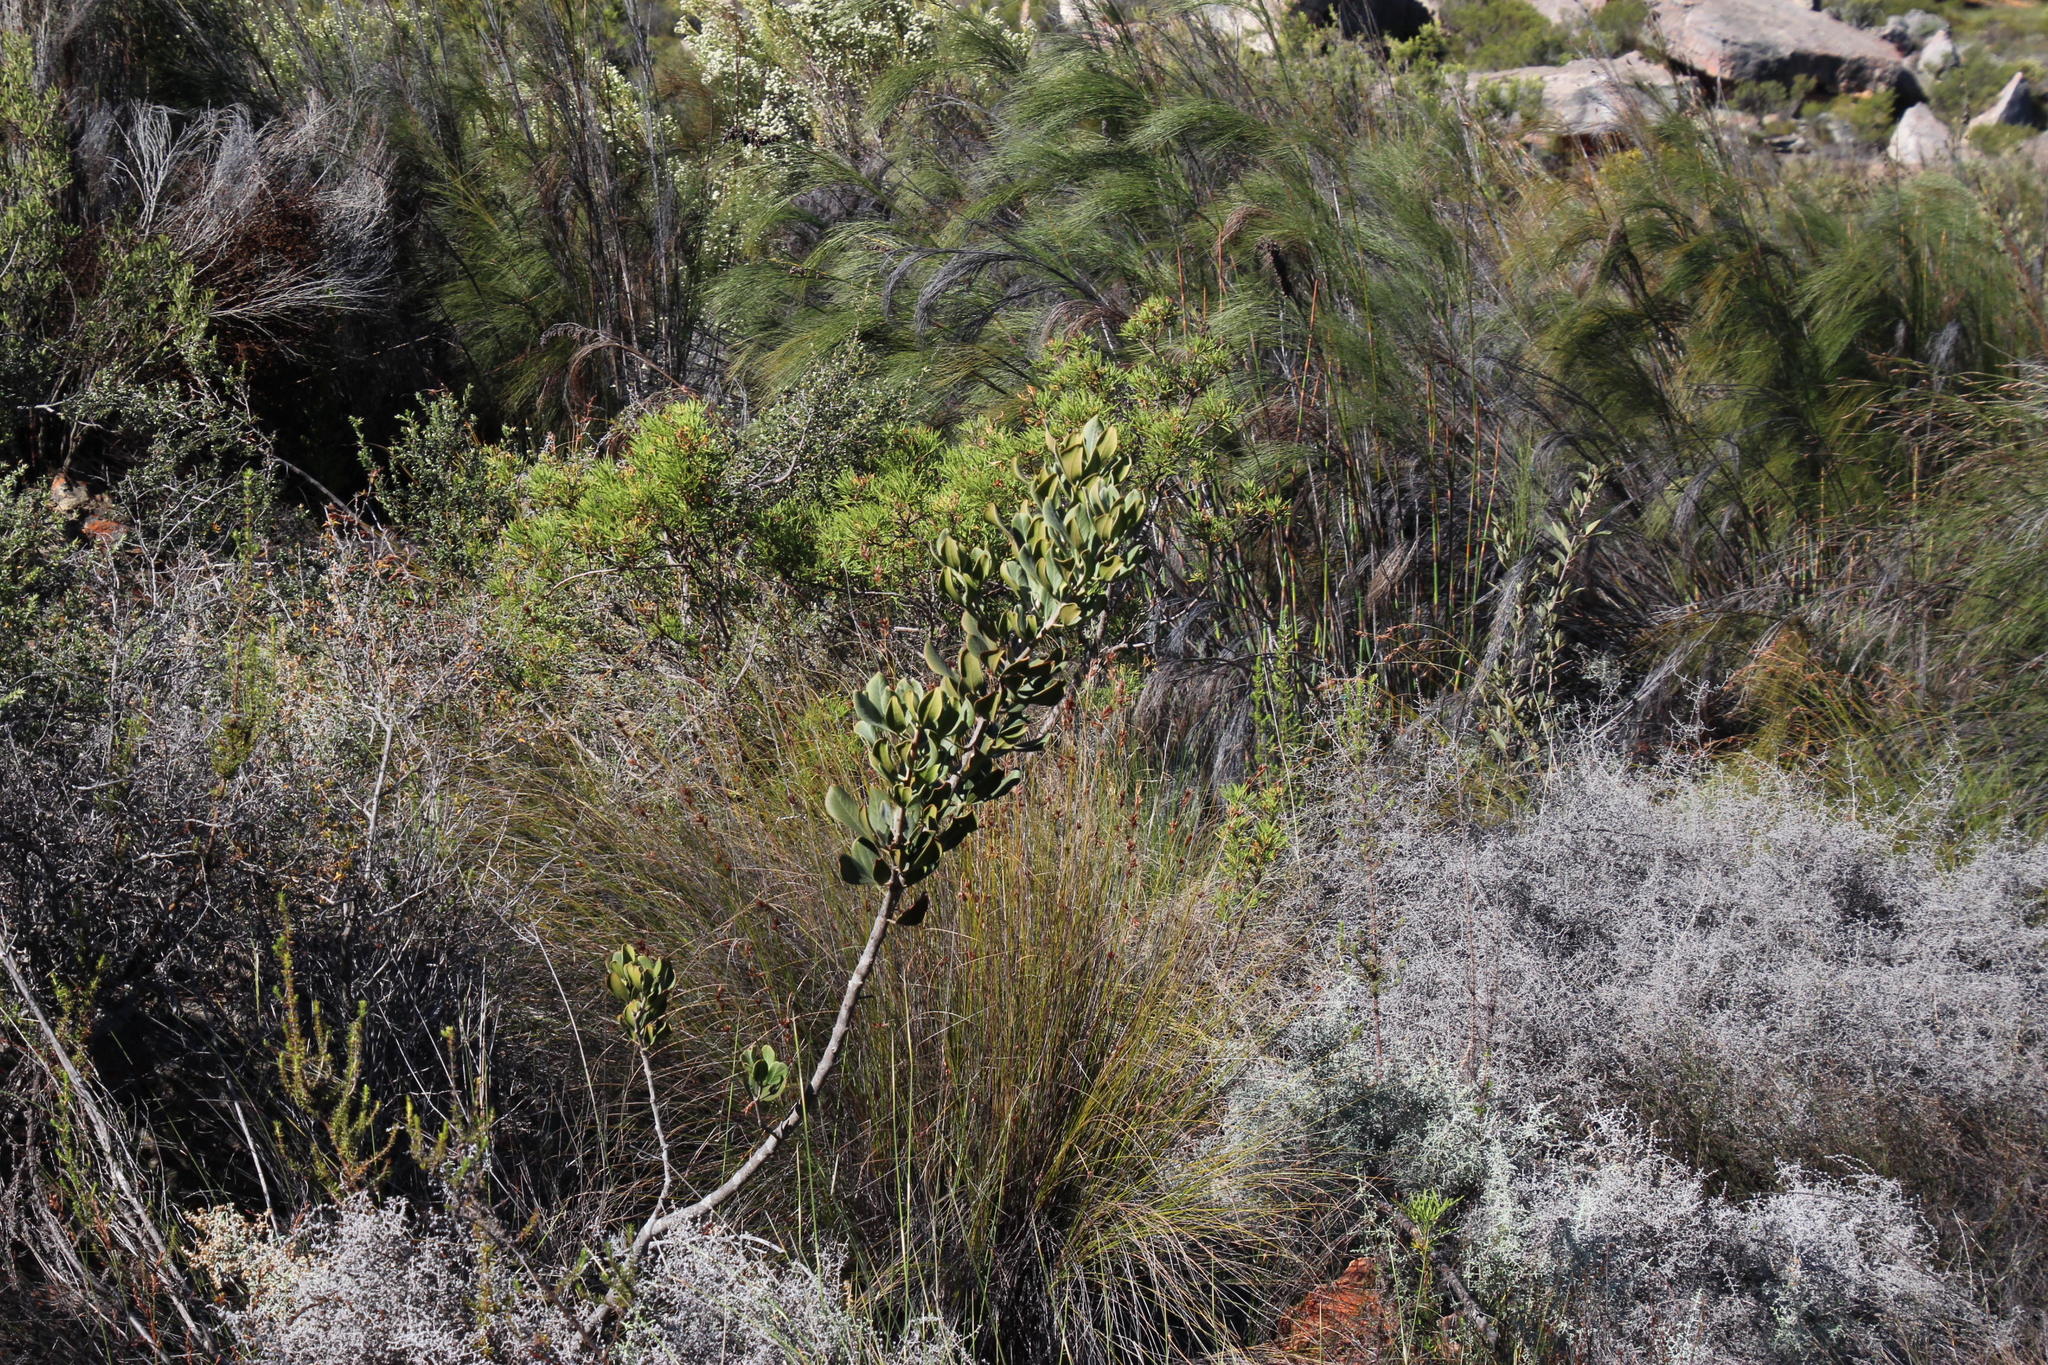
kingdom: Plantae
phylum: Tracheophyta
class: Magnoliopsida
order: Sapindales
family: Anacardiaceae
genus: Searsia
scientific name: Searsia scytophylla
